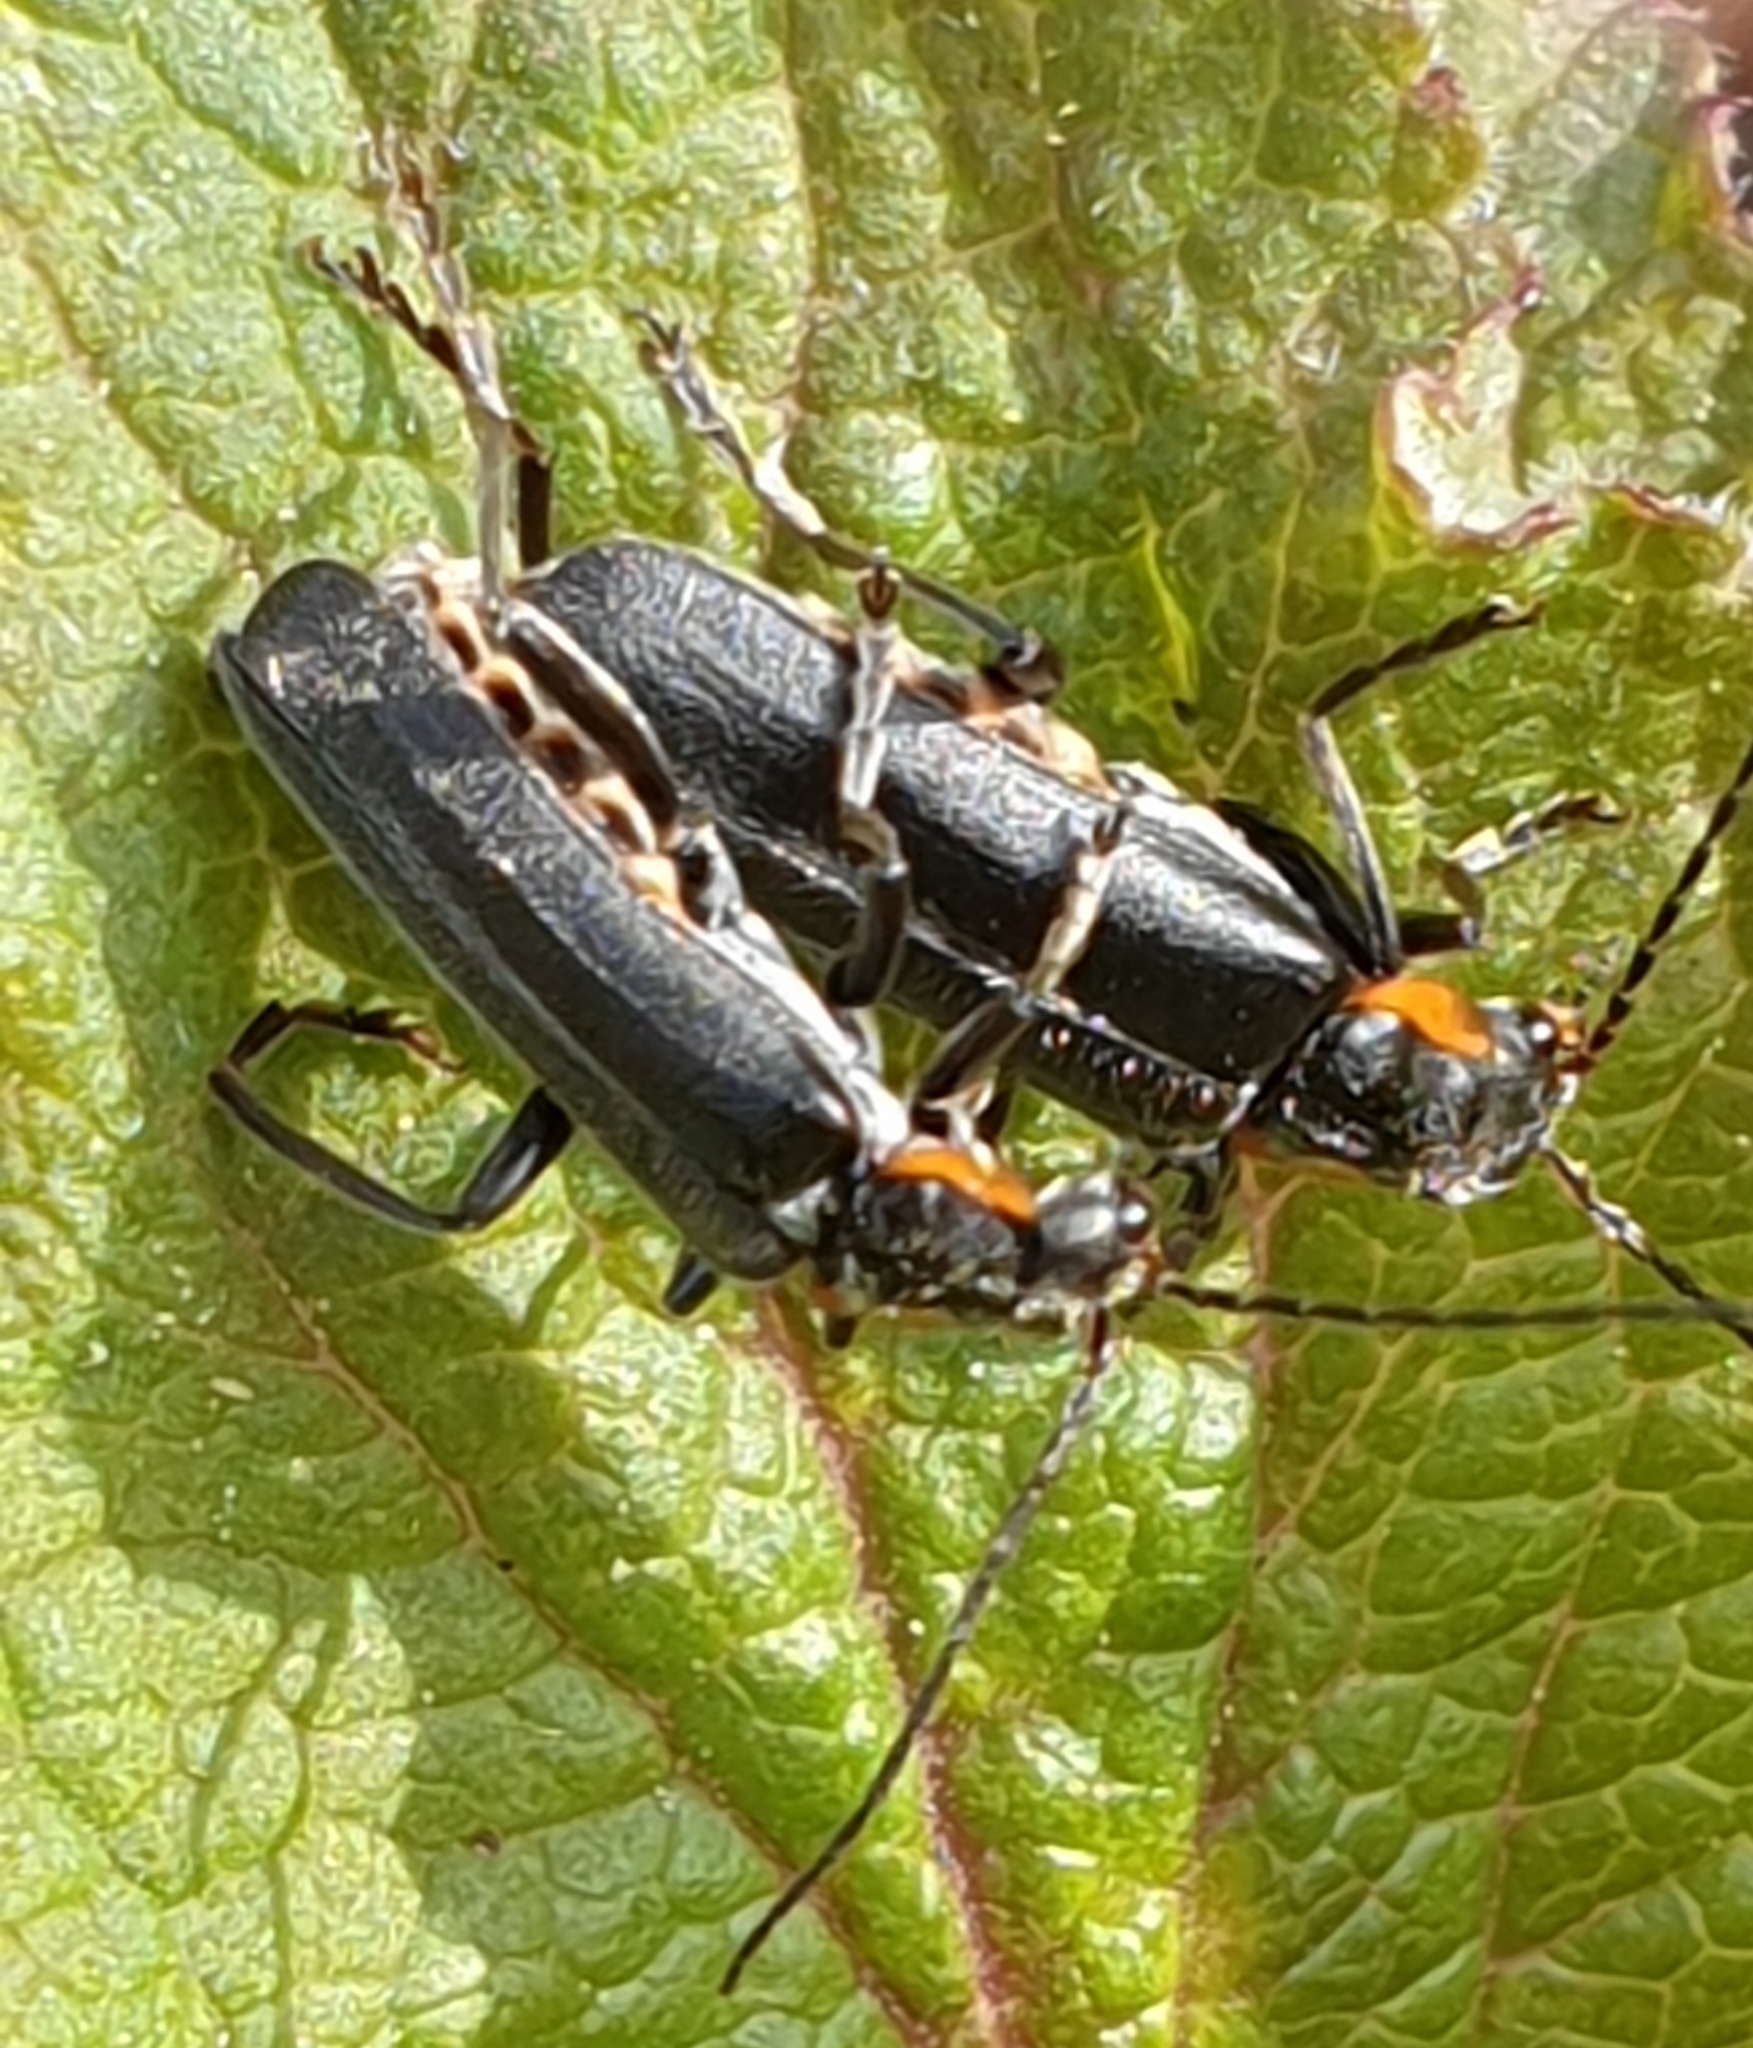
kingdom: Animalia
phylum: Arthropoda
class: Insecta
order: Coleoptera
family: Cantharidae
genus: Cantharis
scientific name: Cantharis obscura
